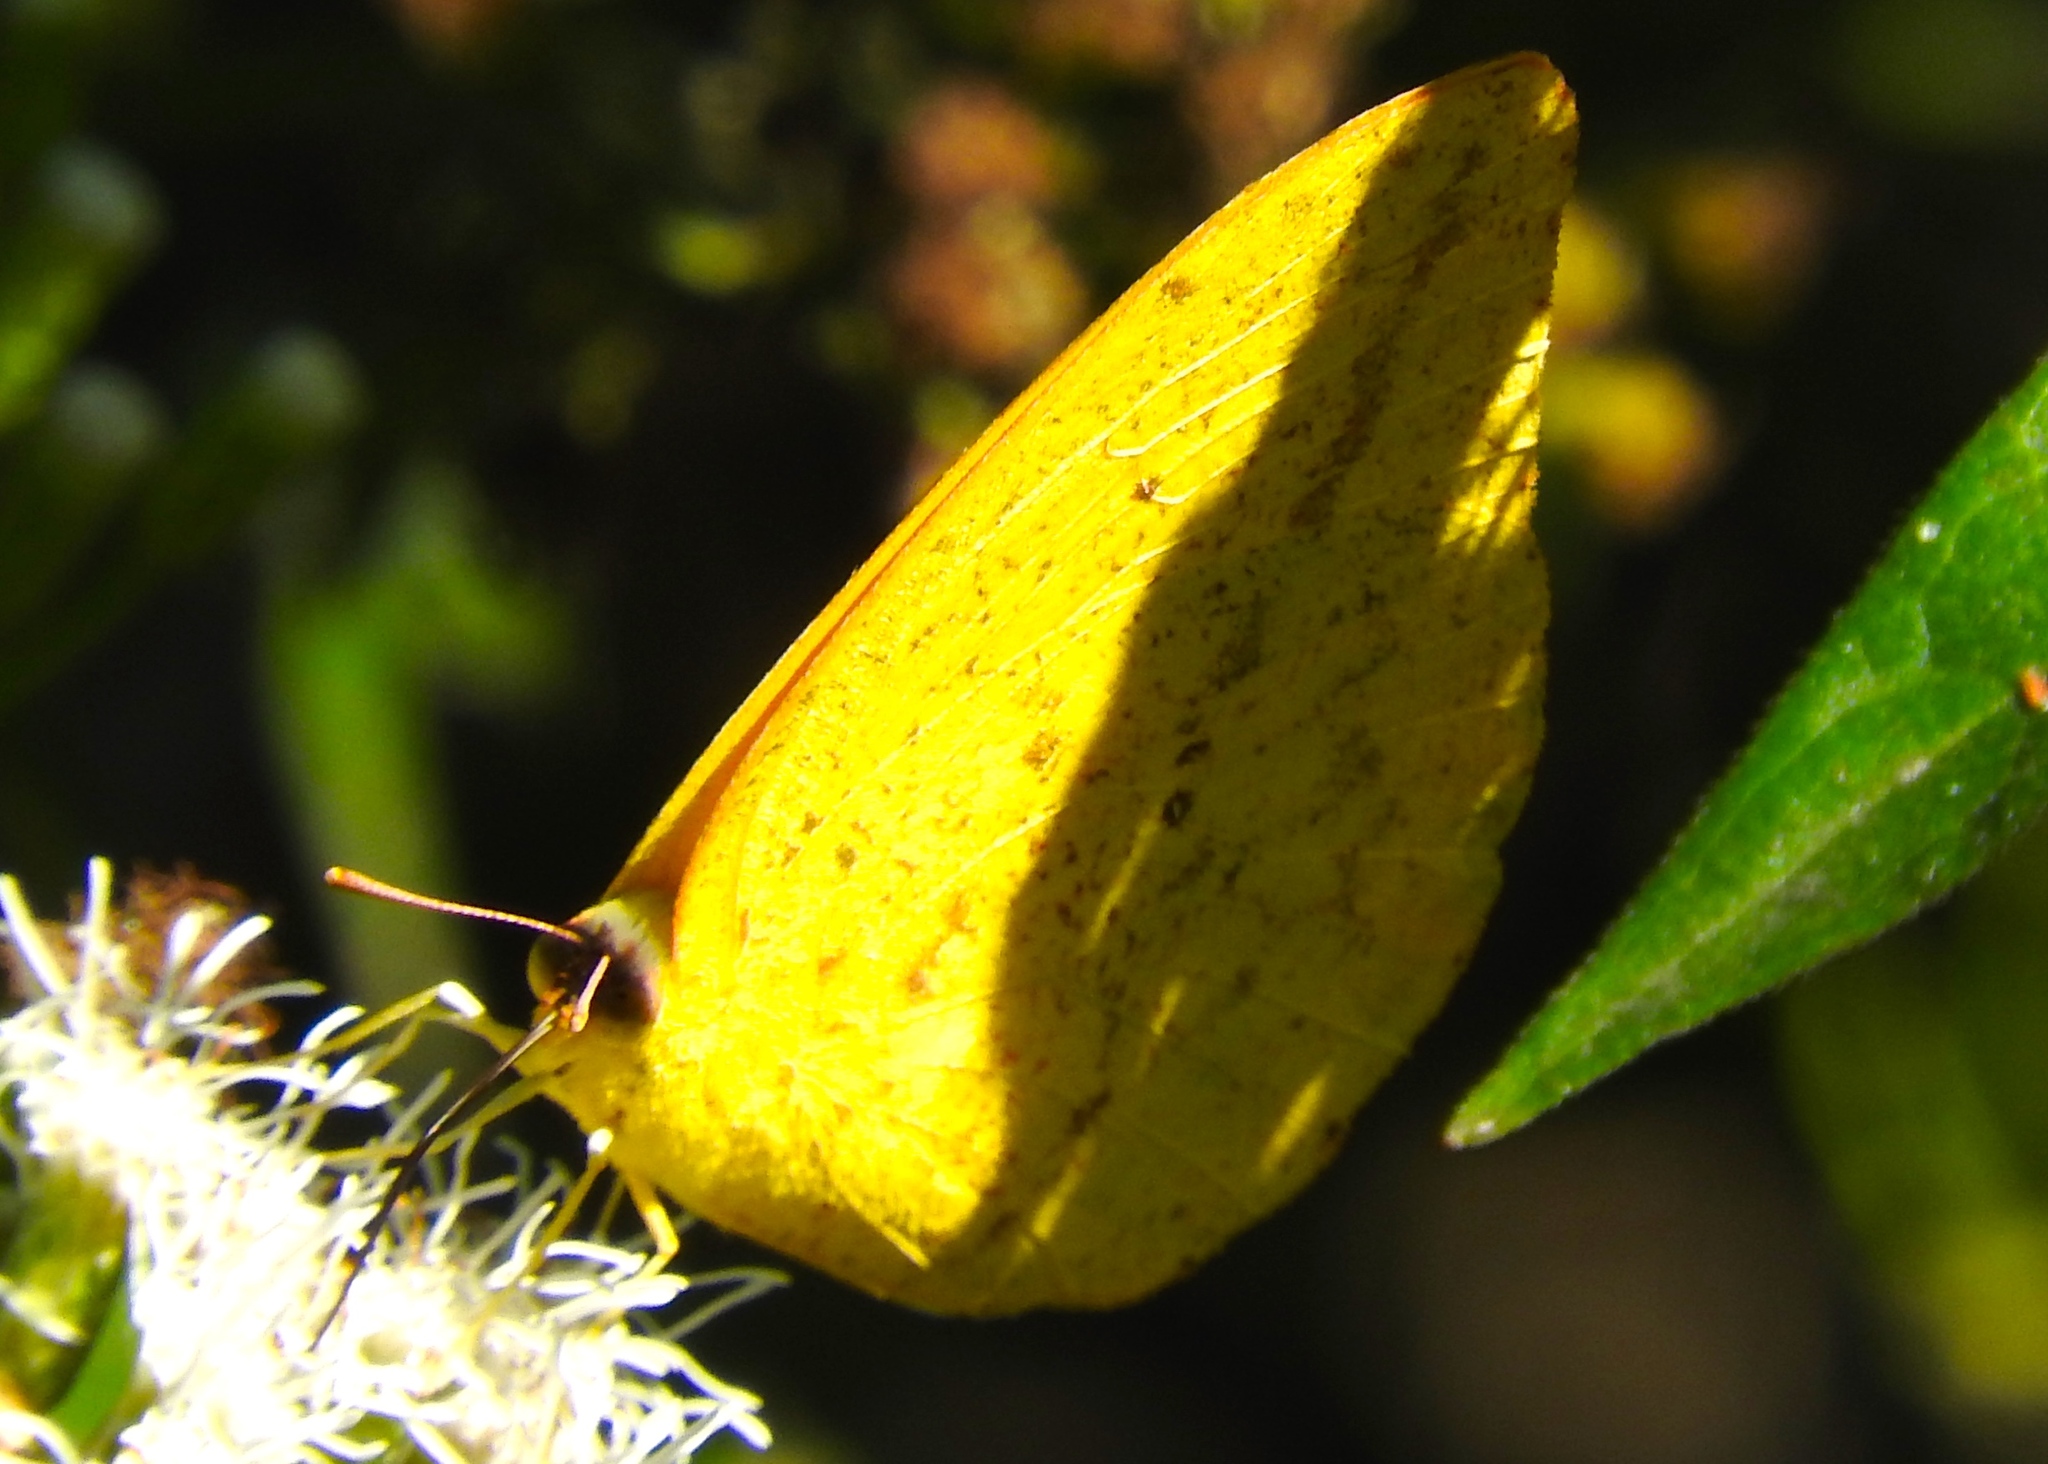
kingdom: Animalia
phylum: Arthropoda
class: Insecta
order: Lepidoptera
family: Pieridae
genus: Phoebis
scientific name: Phoebis agarithe
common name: Large orange sulphur
